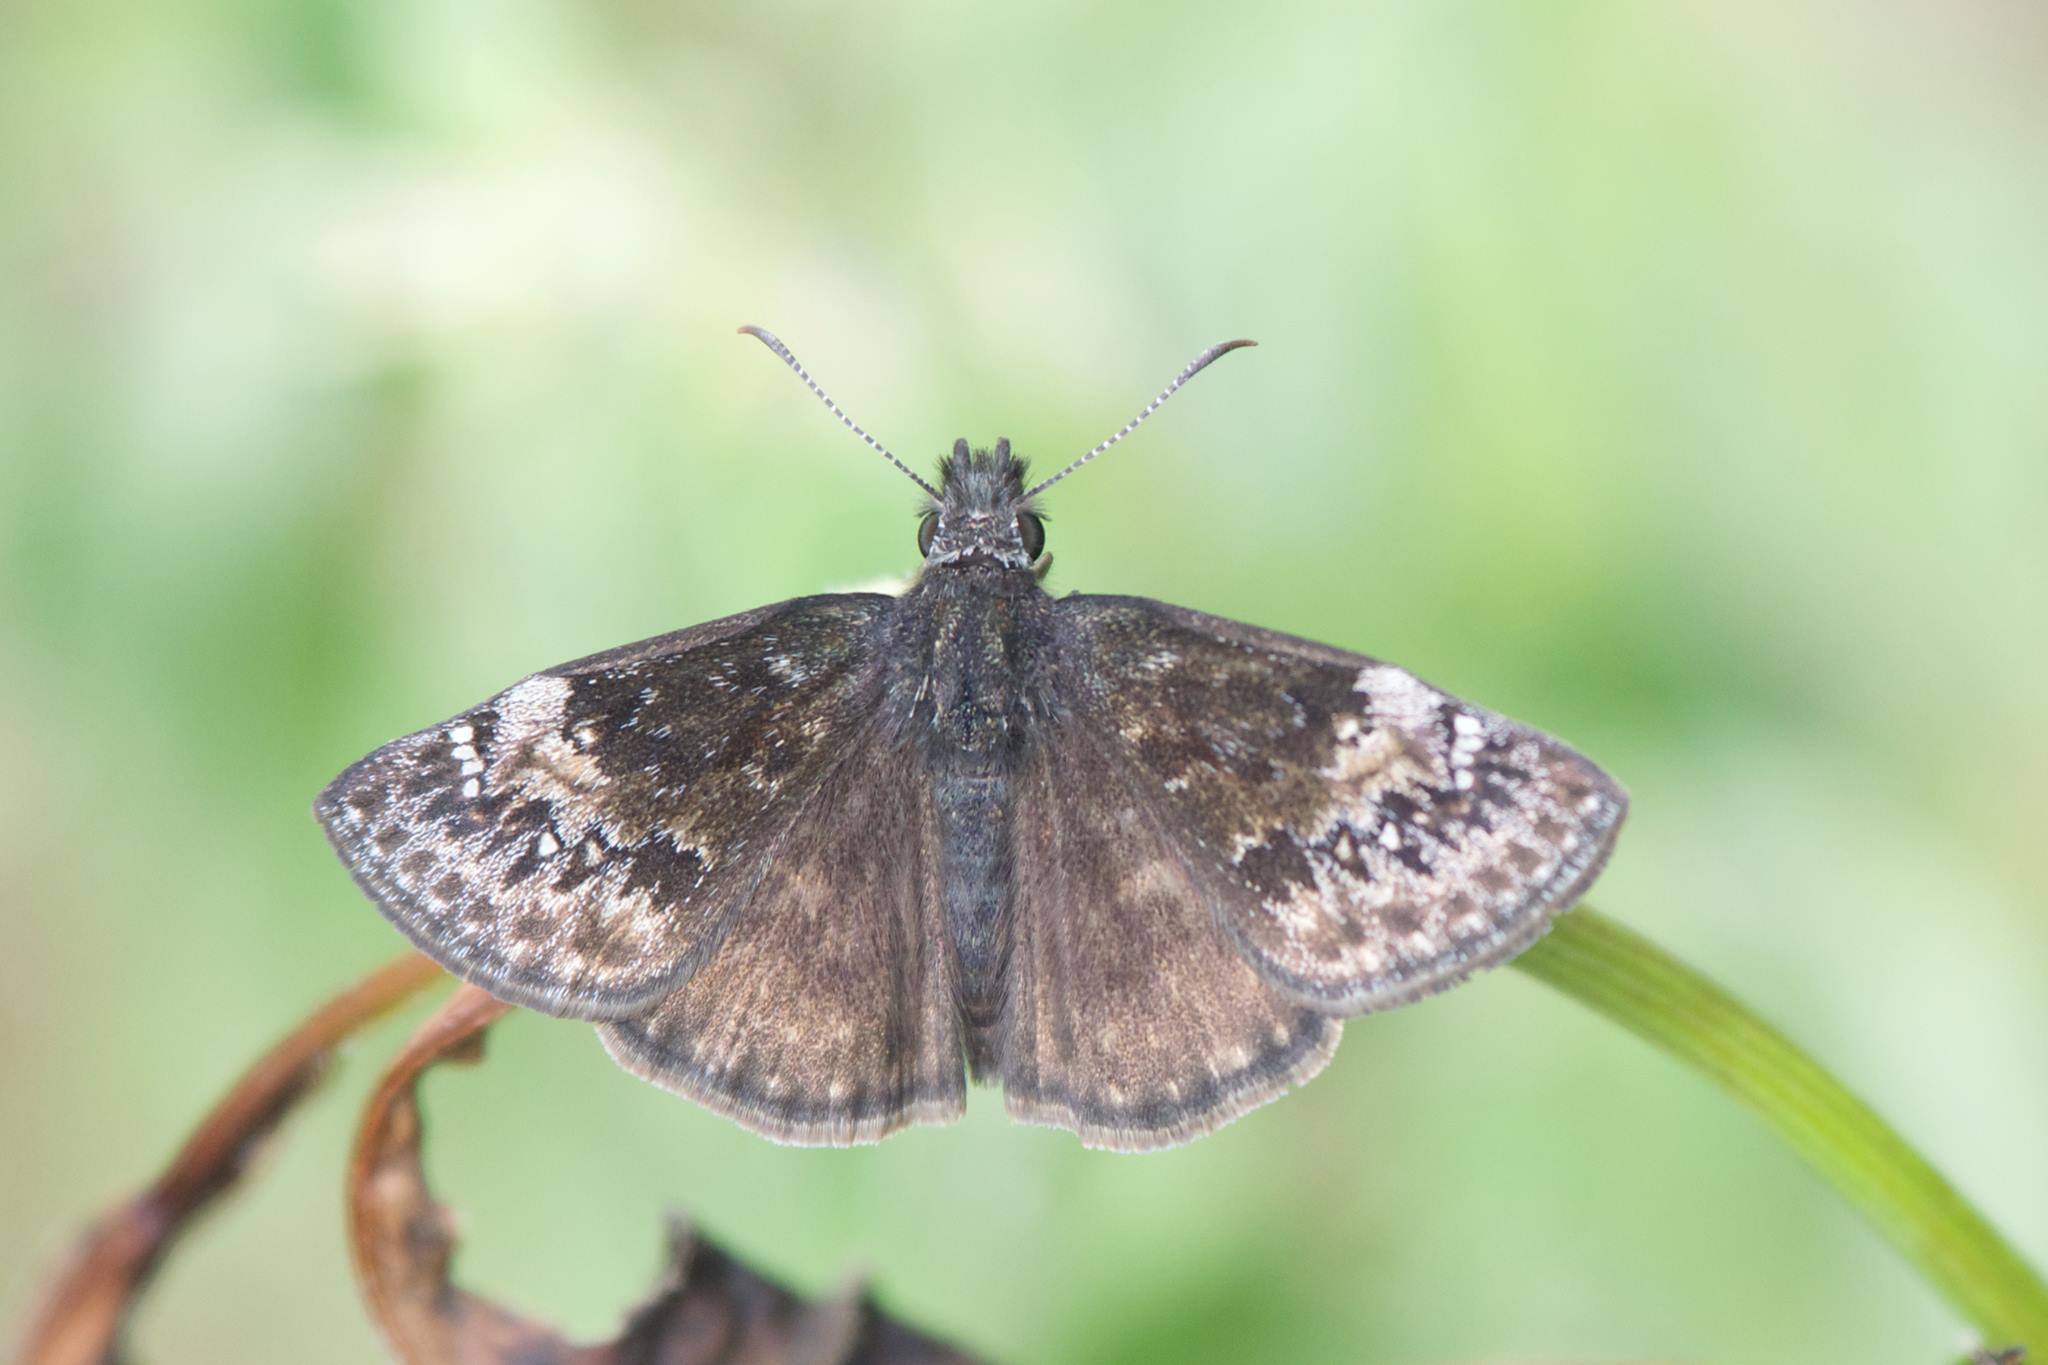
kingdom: Animalia
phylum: Arthropoda
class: Insecta
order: Lepidoptera
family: Hesperiidae
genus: Erynnis
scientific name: Erynnis lucilius
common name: Columbine duskywing
